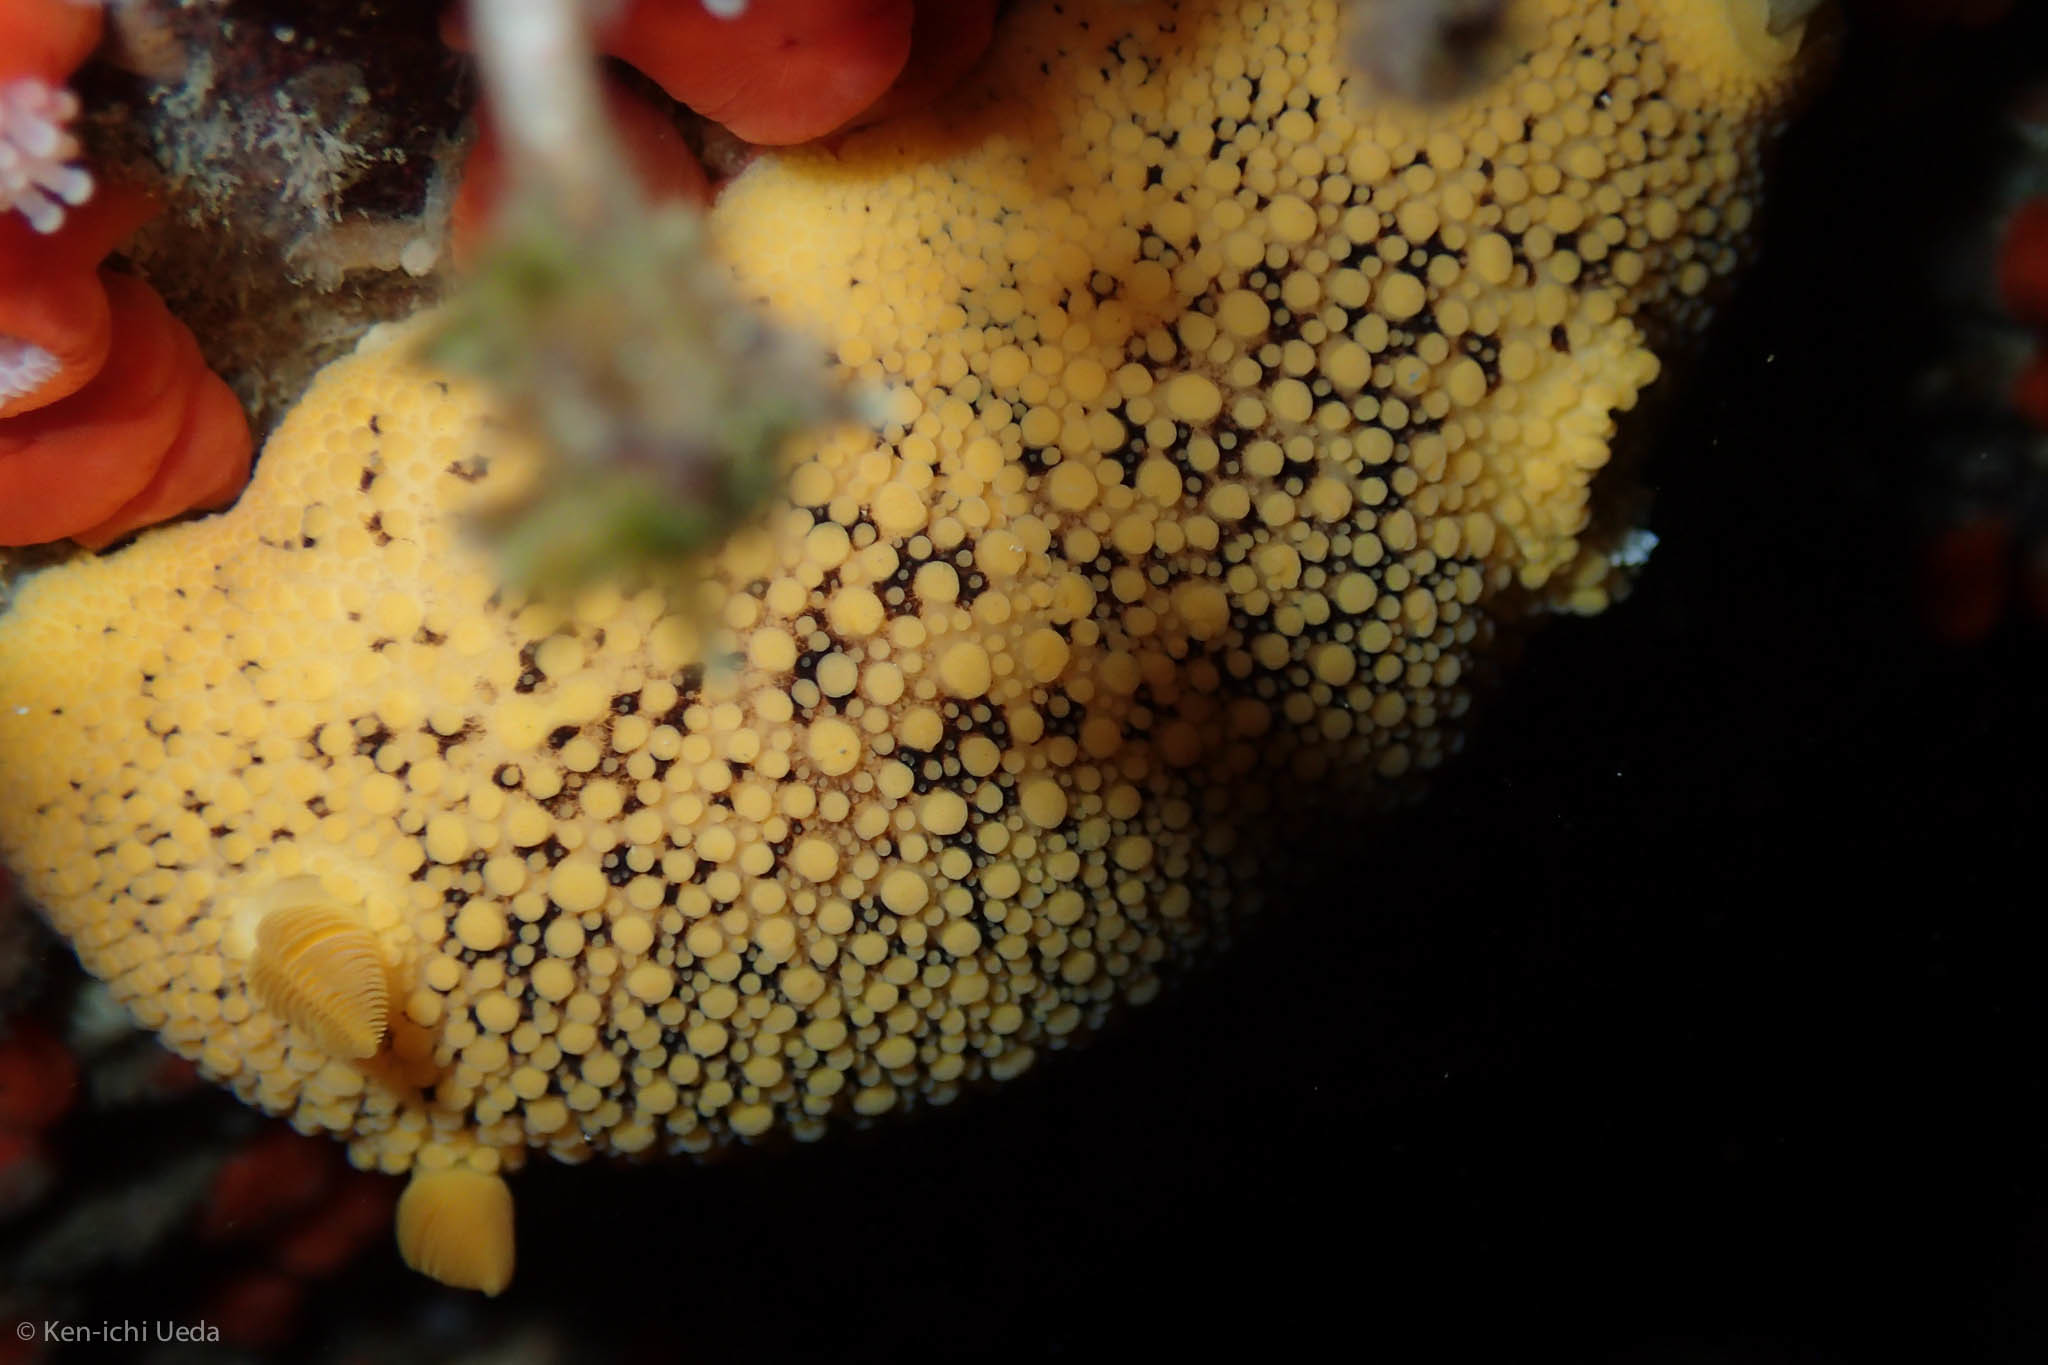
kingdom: Animalia
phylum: Mollusca
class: Gastropoda
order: Nudibranchia
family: Discodorididae
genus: Peltodoris
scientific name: Peltodoris nobilis
